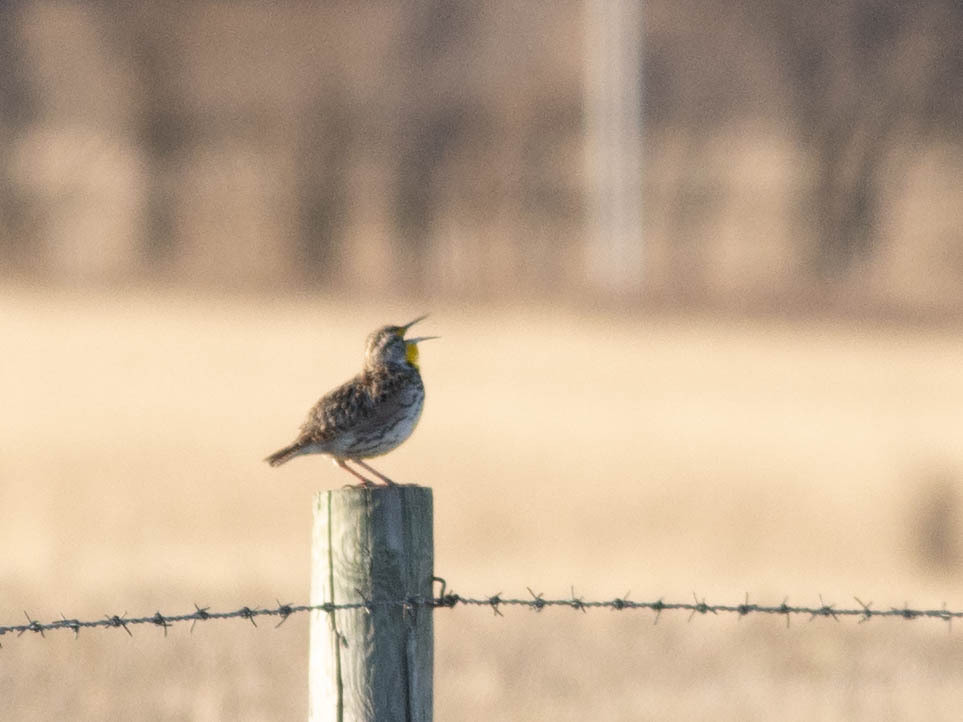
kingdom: Animalia
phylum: Chordata
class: Aves
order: Passeriformes
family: Icteridae
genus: Sturnella
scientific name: Sturnella neglecta
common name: Western meadowlark
